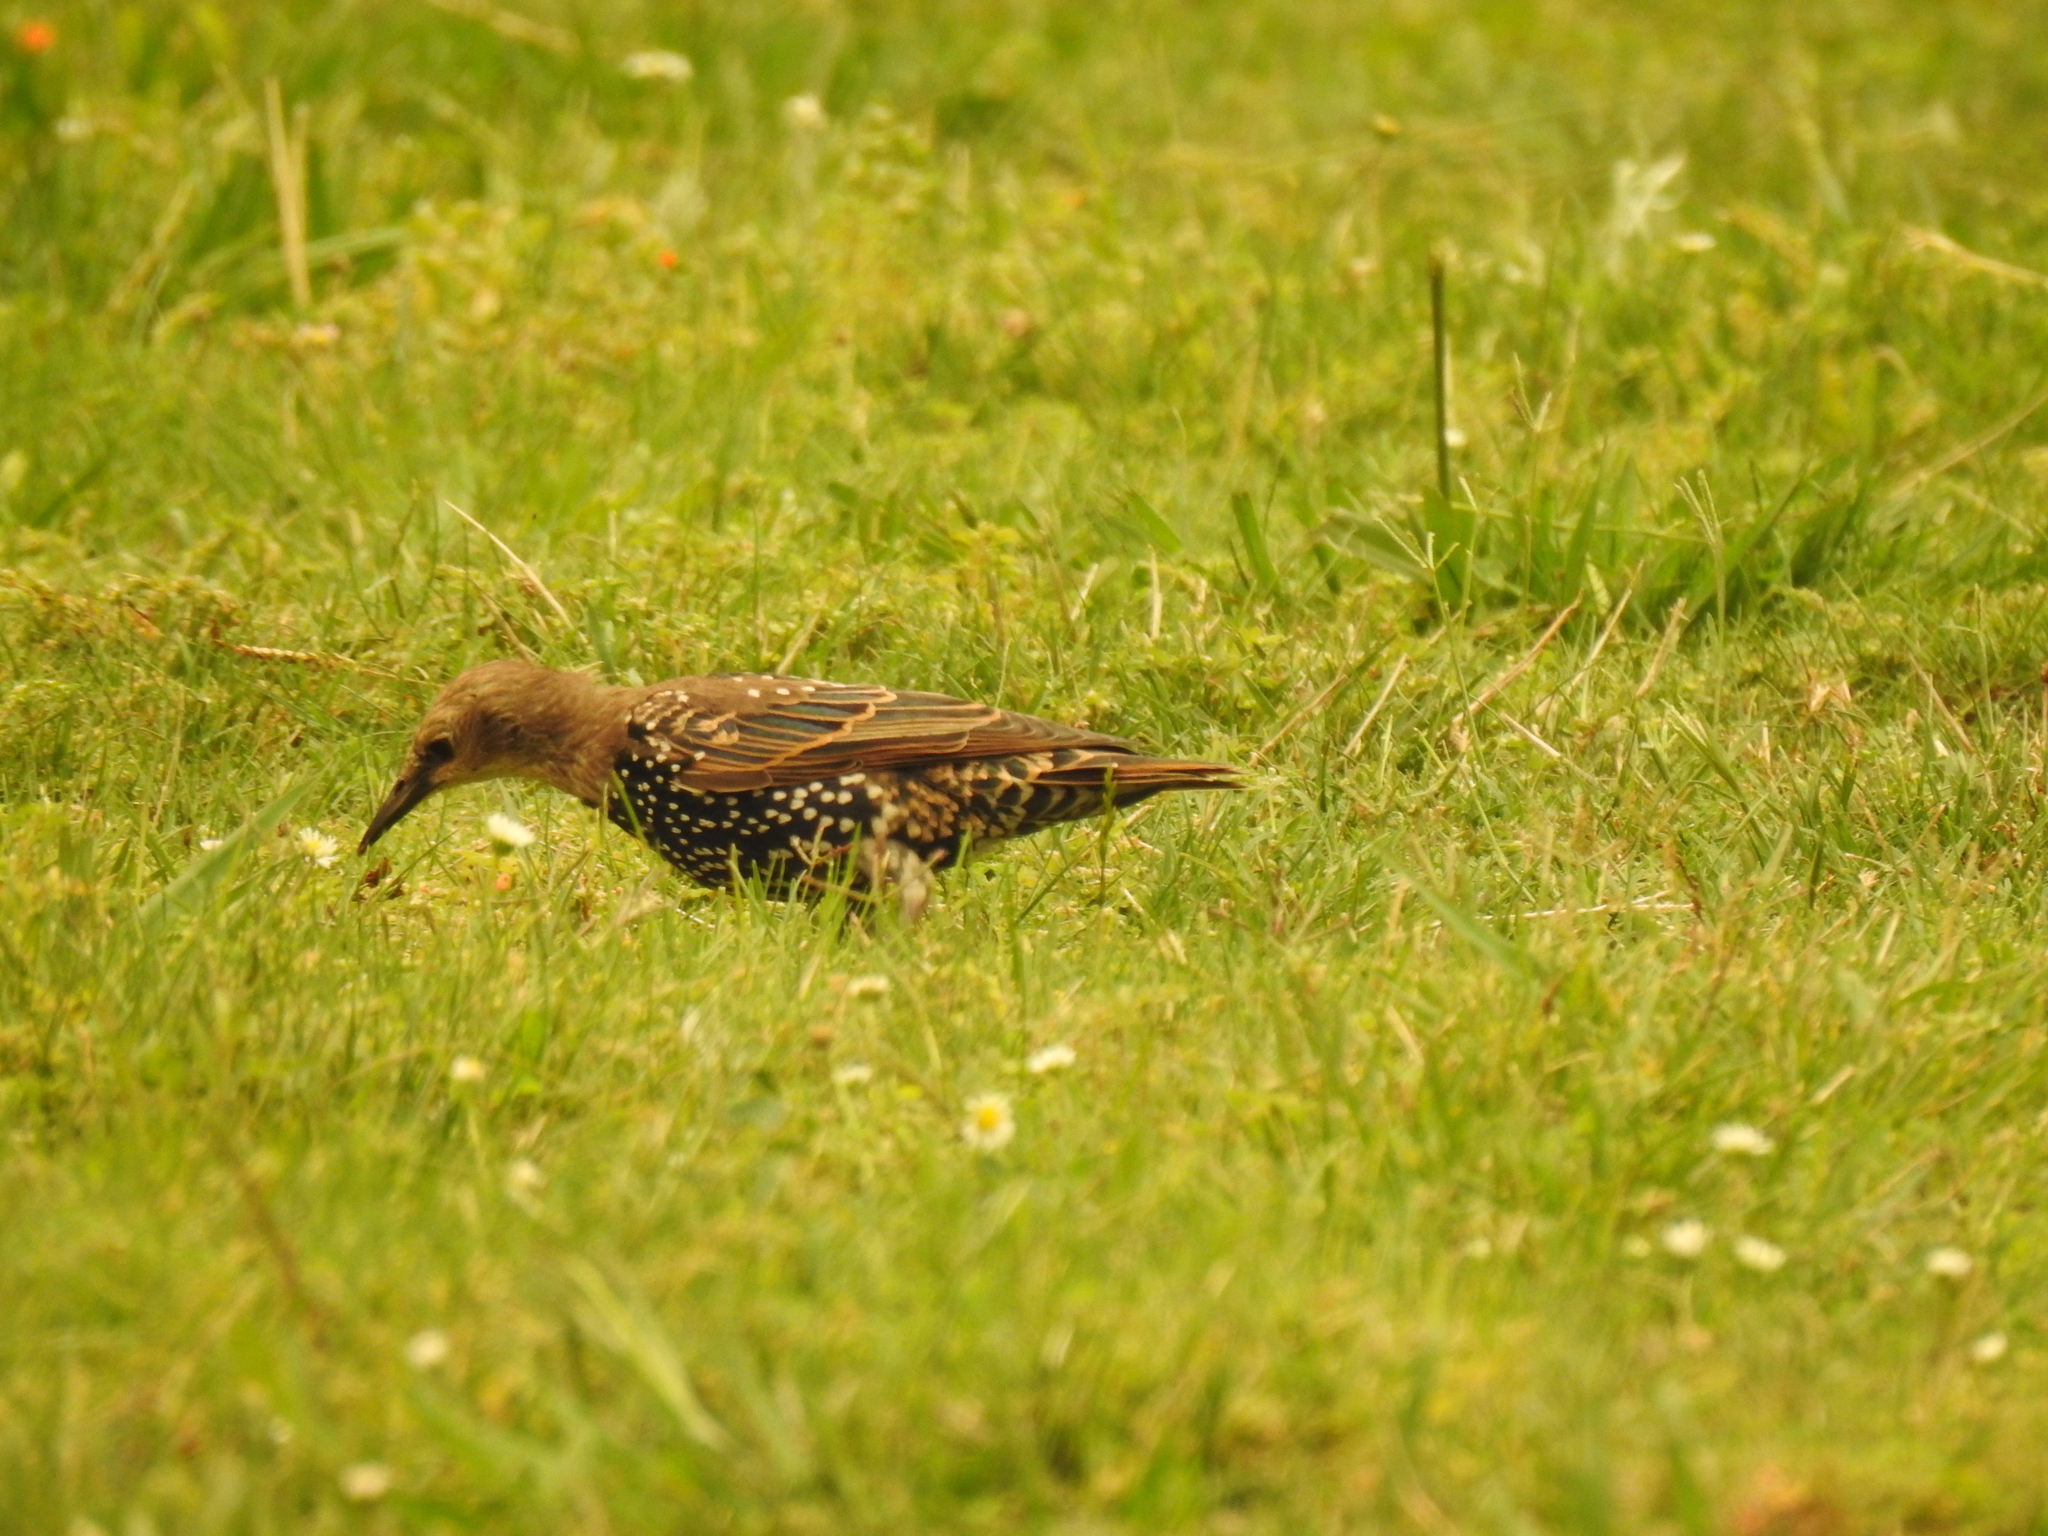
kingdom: Animalia
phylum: Chordata
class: Aves
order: Passeriformes
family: Sturnidae
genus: Sturnus
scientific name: Sturnus vulgaris
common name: Common starling
